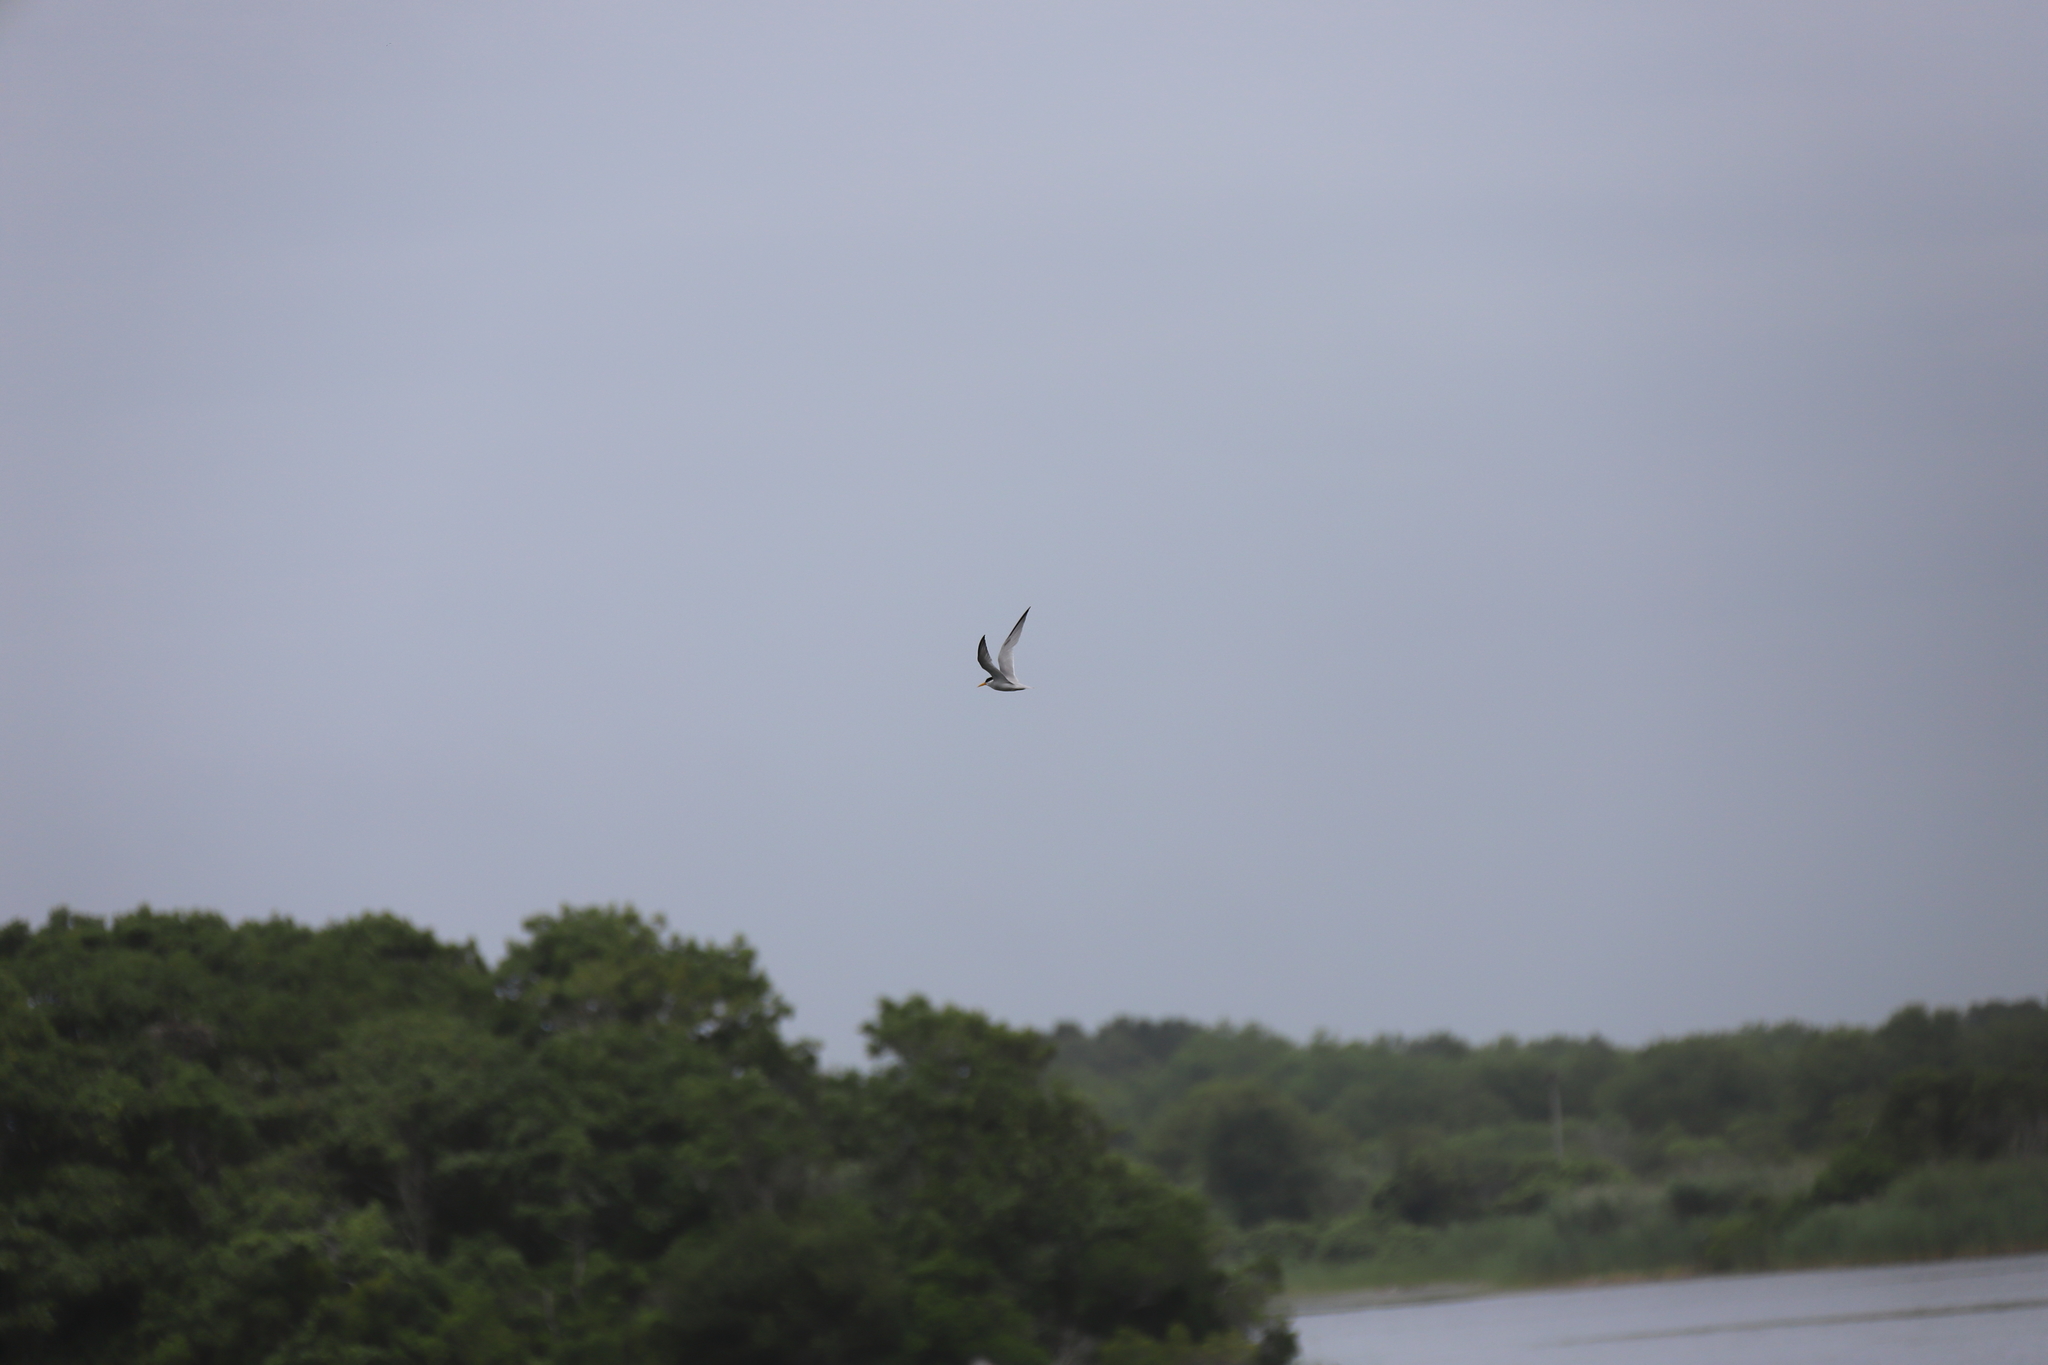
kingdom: Animalia
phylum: Chordata
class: Aves
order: Charadriiformes
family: Laridae
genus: Sternula
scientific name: Sternula antillarum
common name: Least tern
